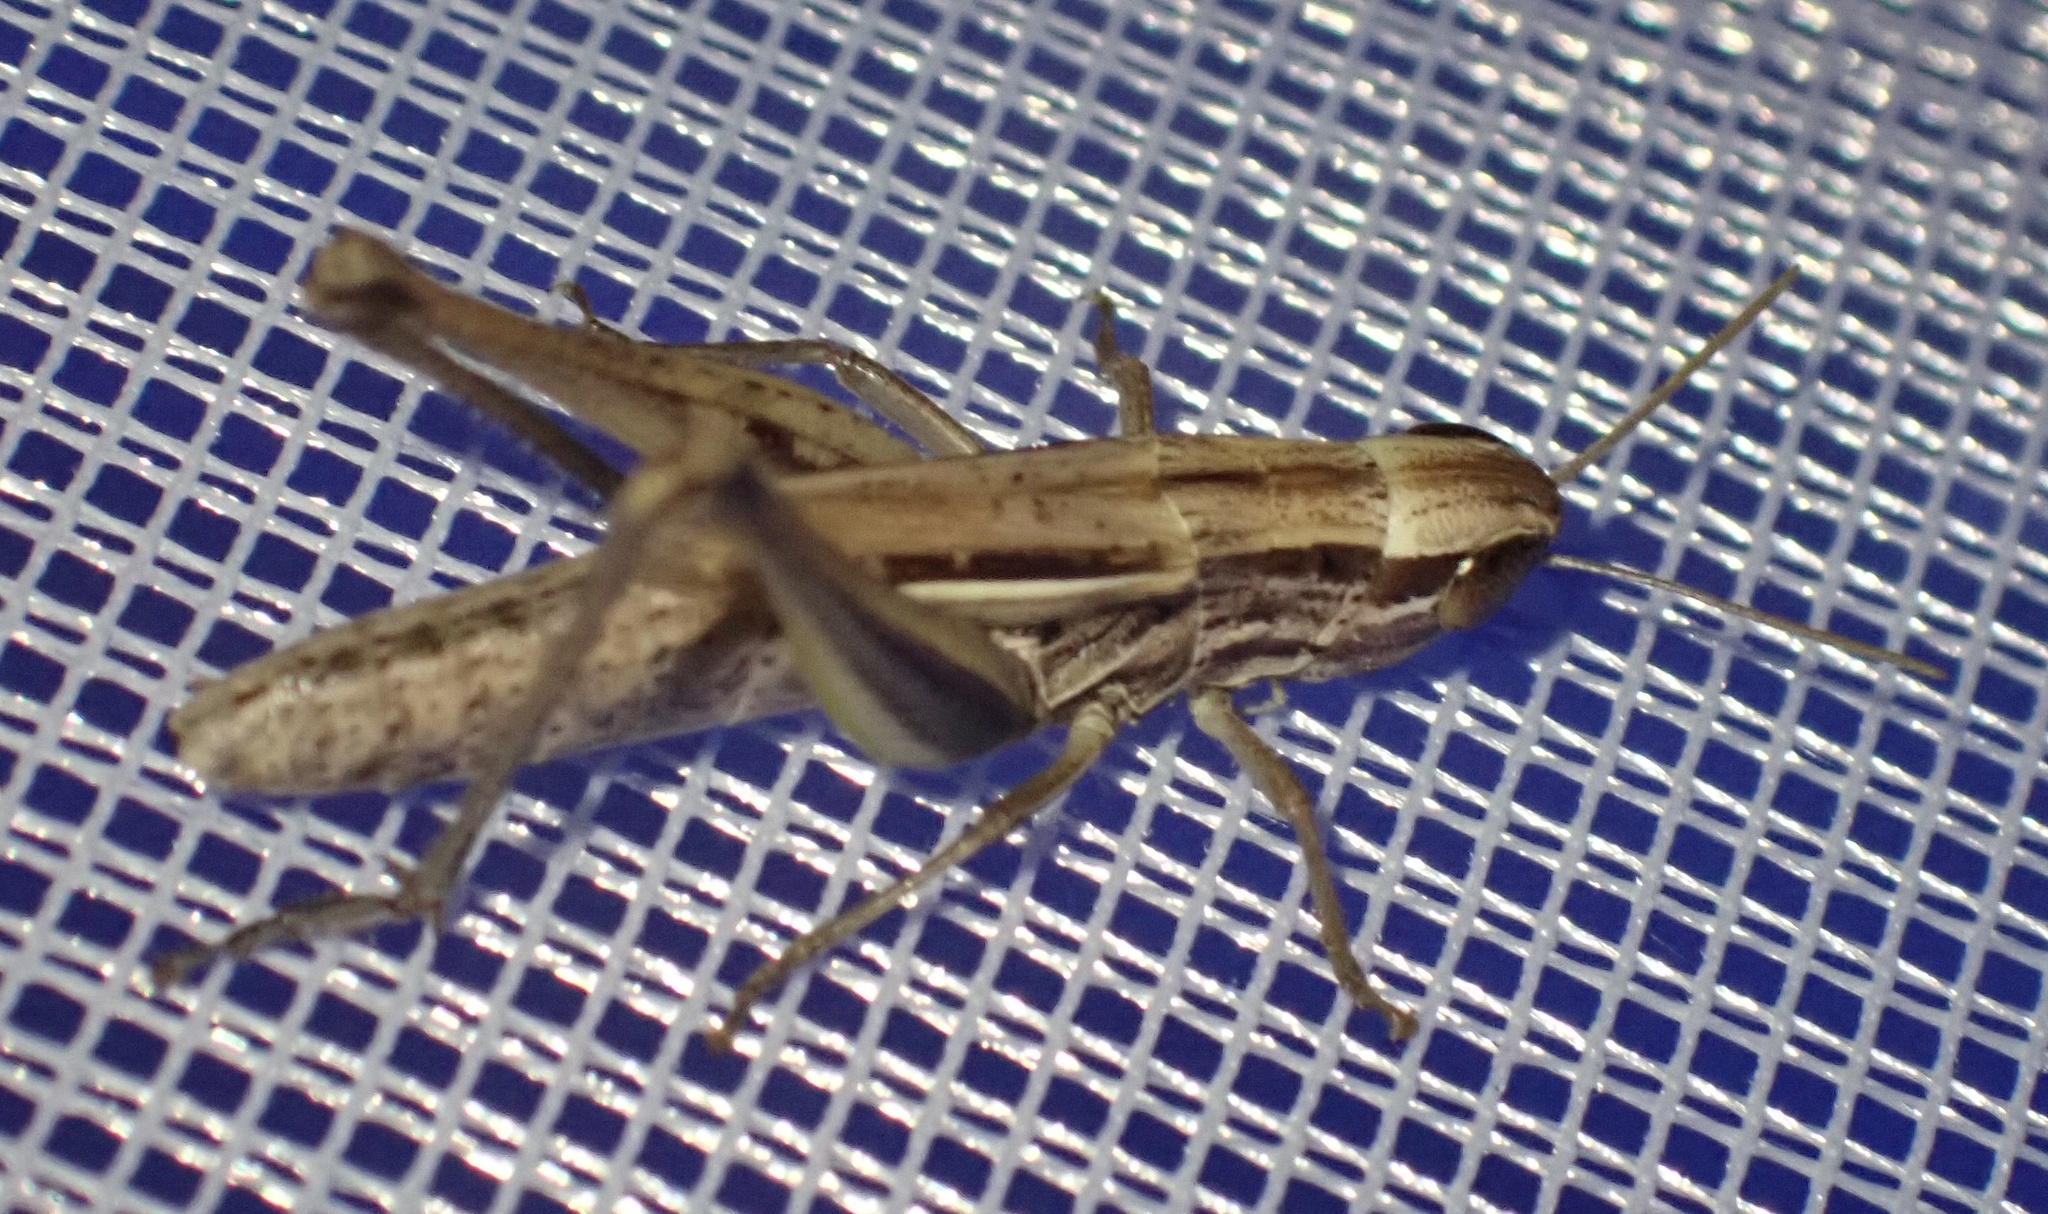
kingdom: Animalia
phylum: Arthropoda
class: Insecta
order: Orthoptera
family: Acrididae
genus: Euchorthippus
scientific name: Euchorthippus declivus
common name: Common straw grasshopper
